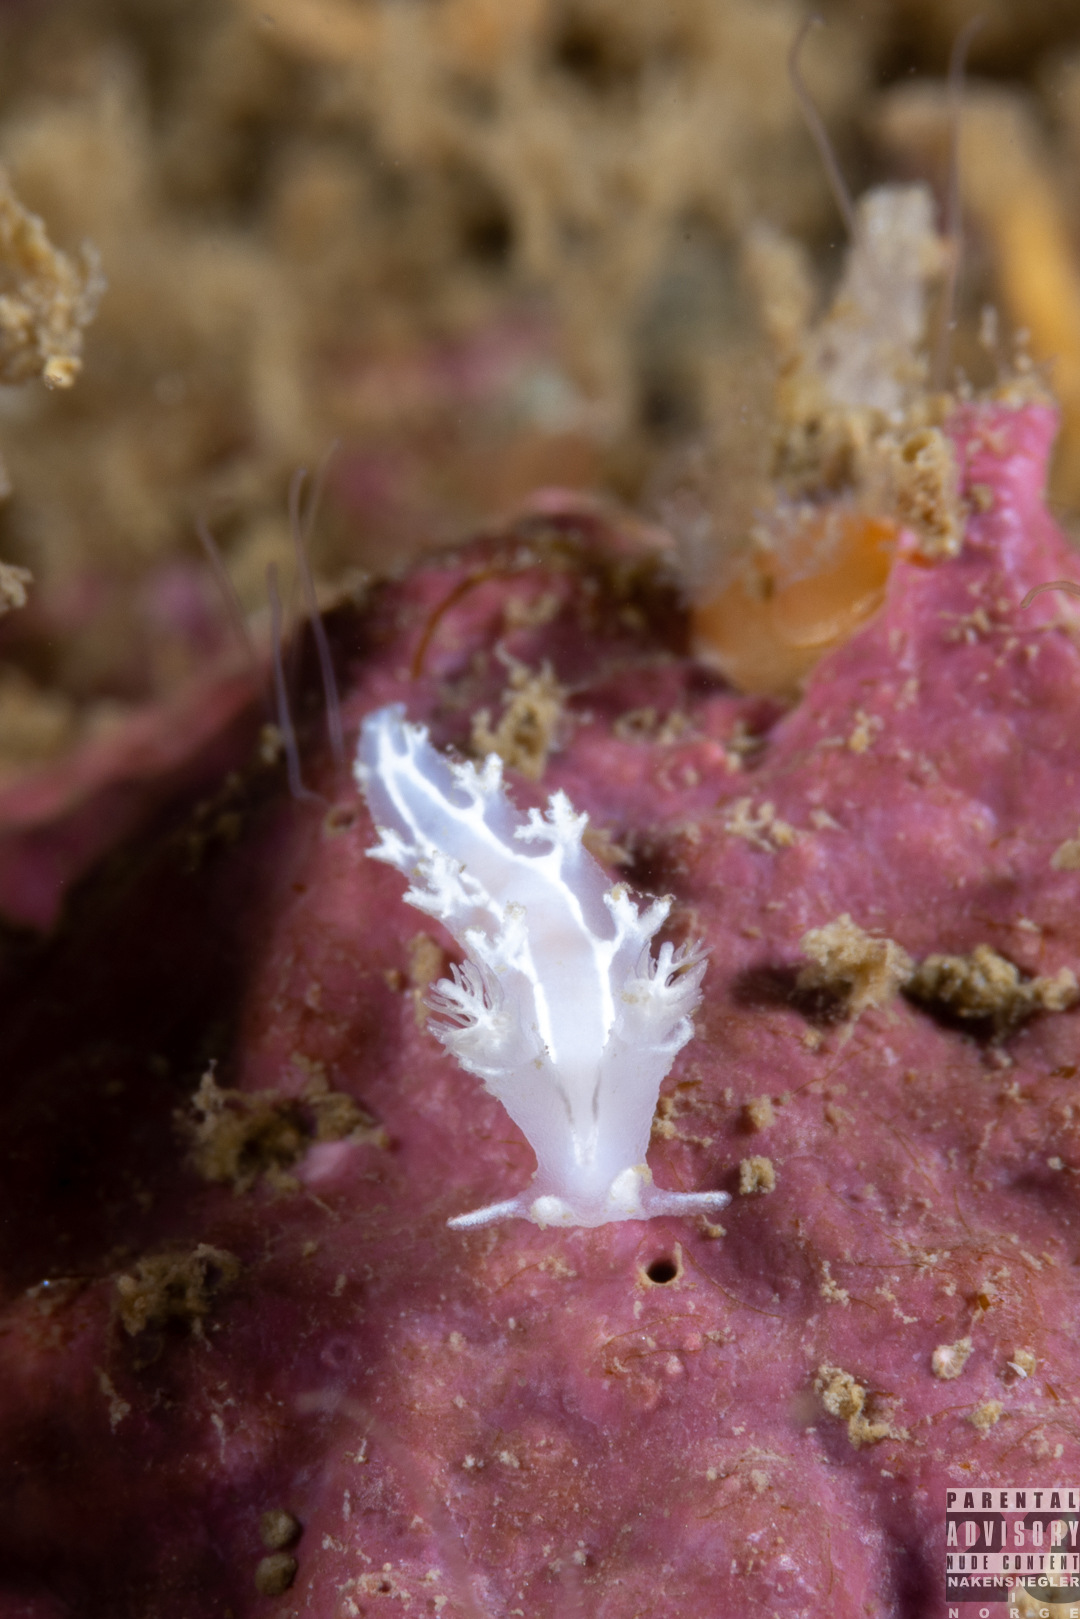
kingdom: Animalia
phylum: Mollusca
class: Gastropoda
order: Nudibranchia
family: Tritoniidae
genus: Duvaucelia
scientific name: Duvaucelia lineata
